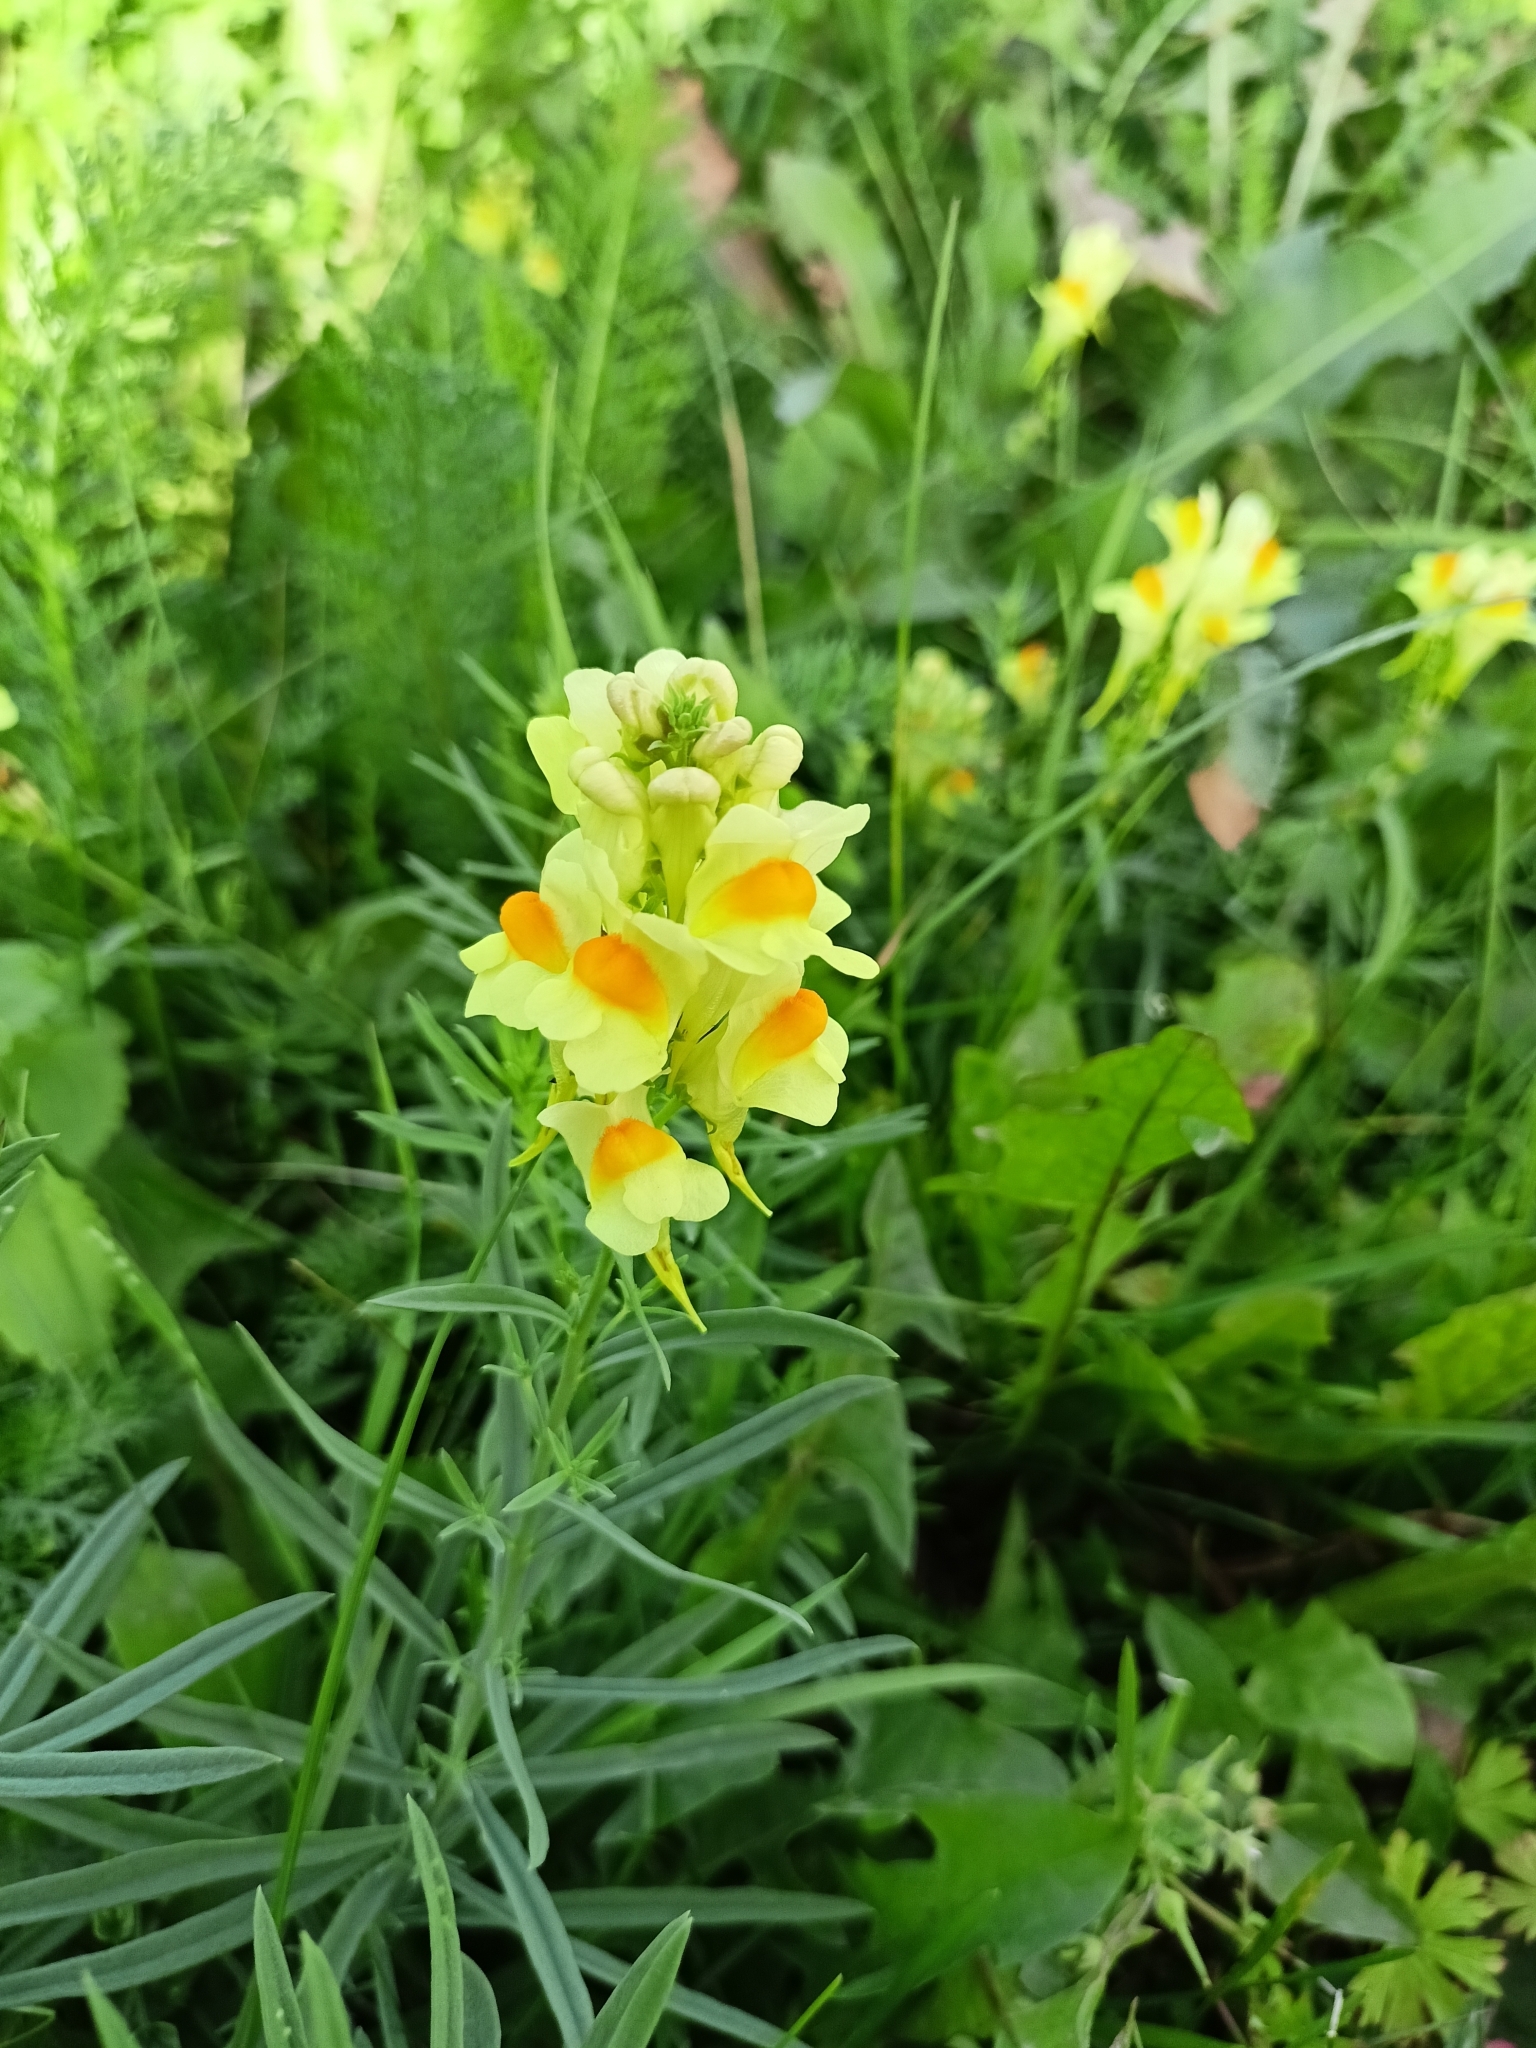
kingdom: Plantae
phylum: Tracheophyta
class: Magnoliopsida
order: Lamiales
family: Plantaginaceae
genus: Linaria
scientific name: Linaria vulgaris
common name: Butter and eggs
